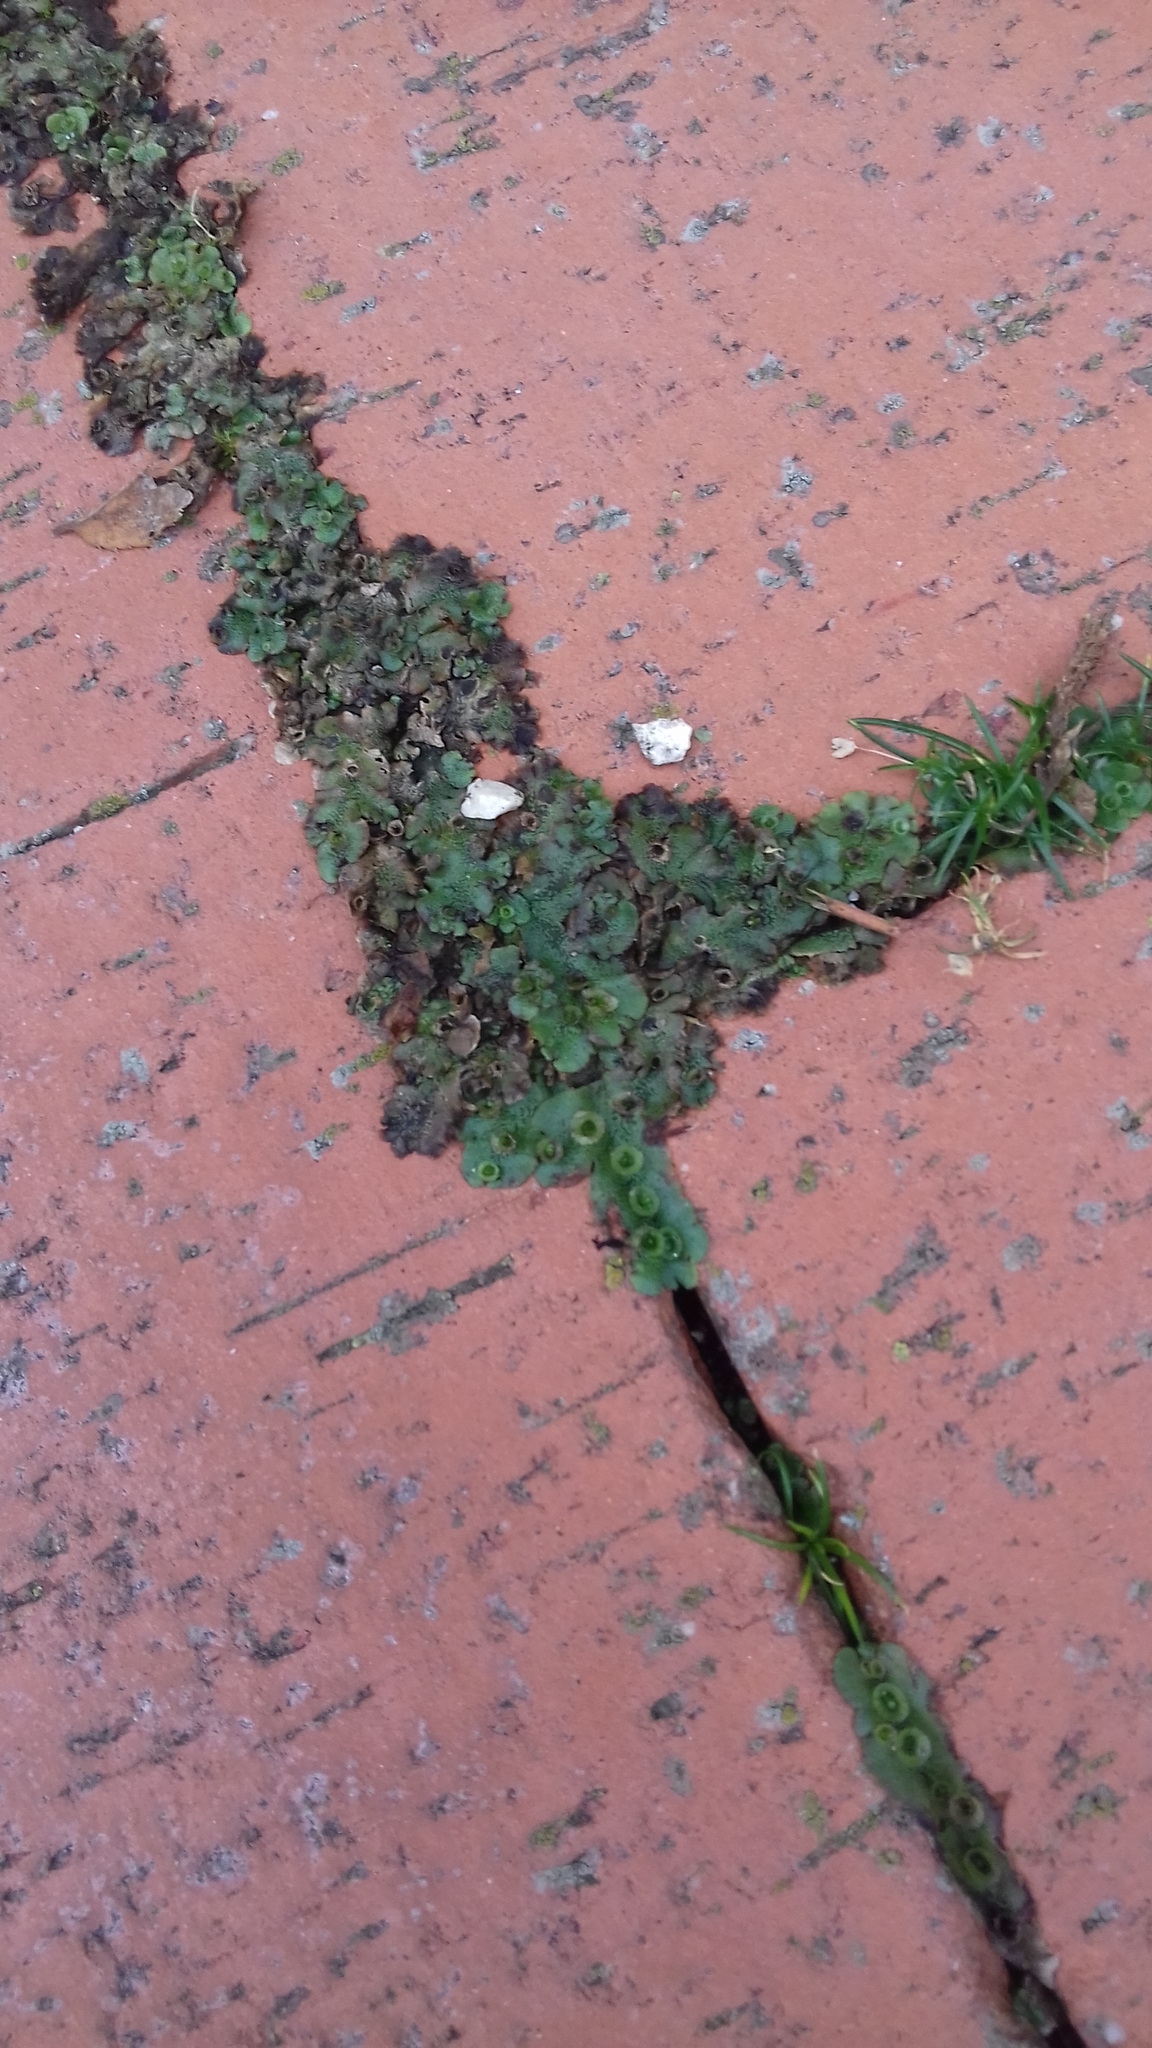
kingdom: Plantae
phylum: Marchantiophyta
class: Marchantiopsida
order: Marchantiales
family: Marchantiaceae
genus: Marchantia
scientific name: Marchantia polymorpha
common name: Common liverwort
